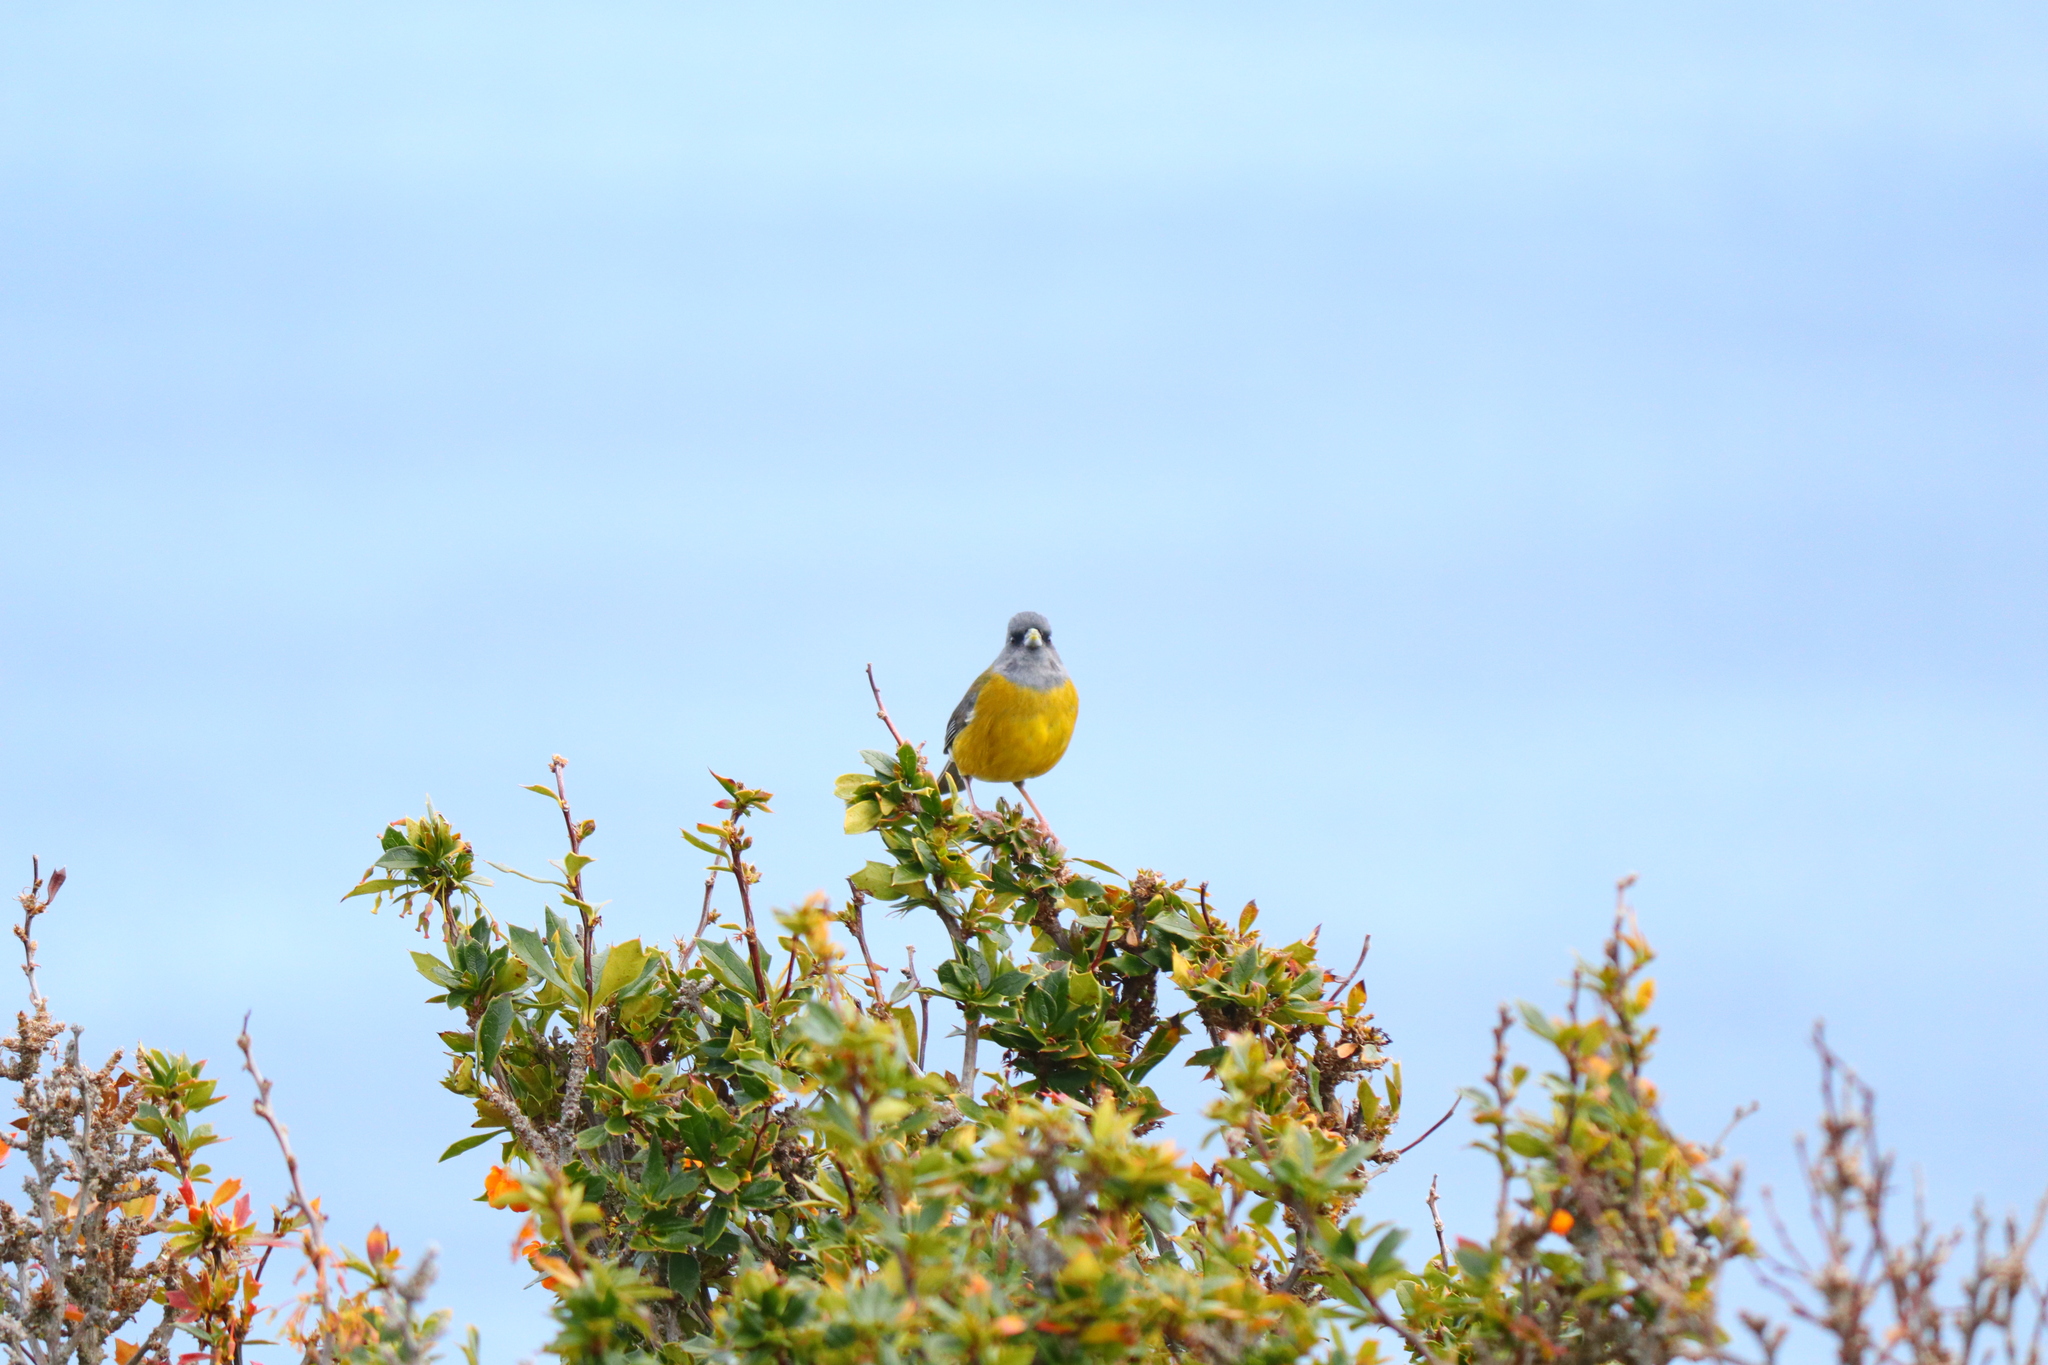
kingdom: Animalia
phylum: Chordata
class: Aves
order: Passeriformes
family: Thraupidae
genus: Phrygilus
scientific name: Phrygilus patagonicus
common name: Patagonian sierra finch
